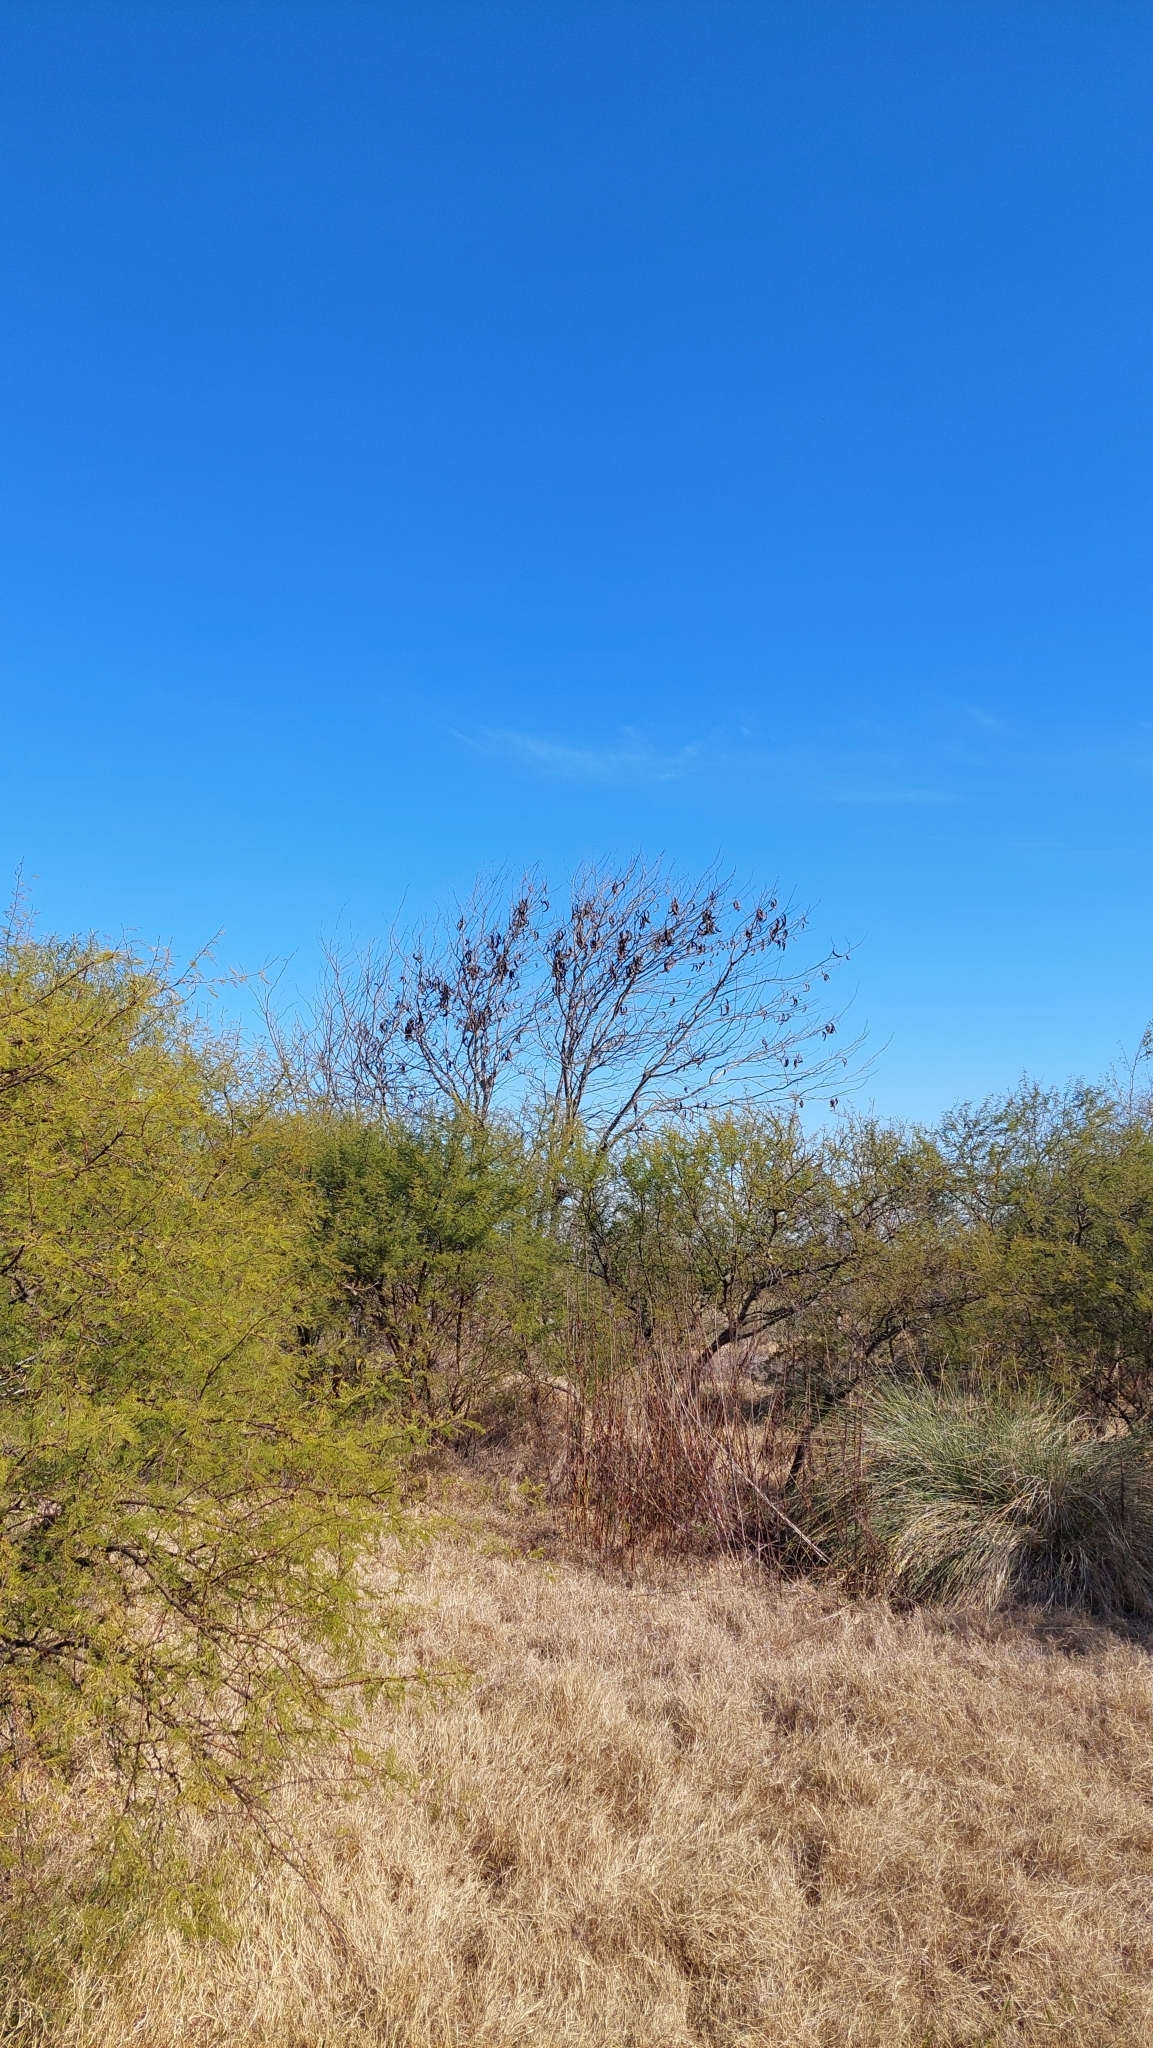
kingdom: Plantae
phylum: Tracheophyta
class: Magnoliopsida
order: Fabales
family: Fabaceae
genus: Gleditsia
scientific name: Gleditsia triacanthos
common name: Common honeylocust
